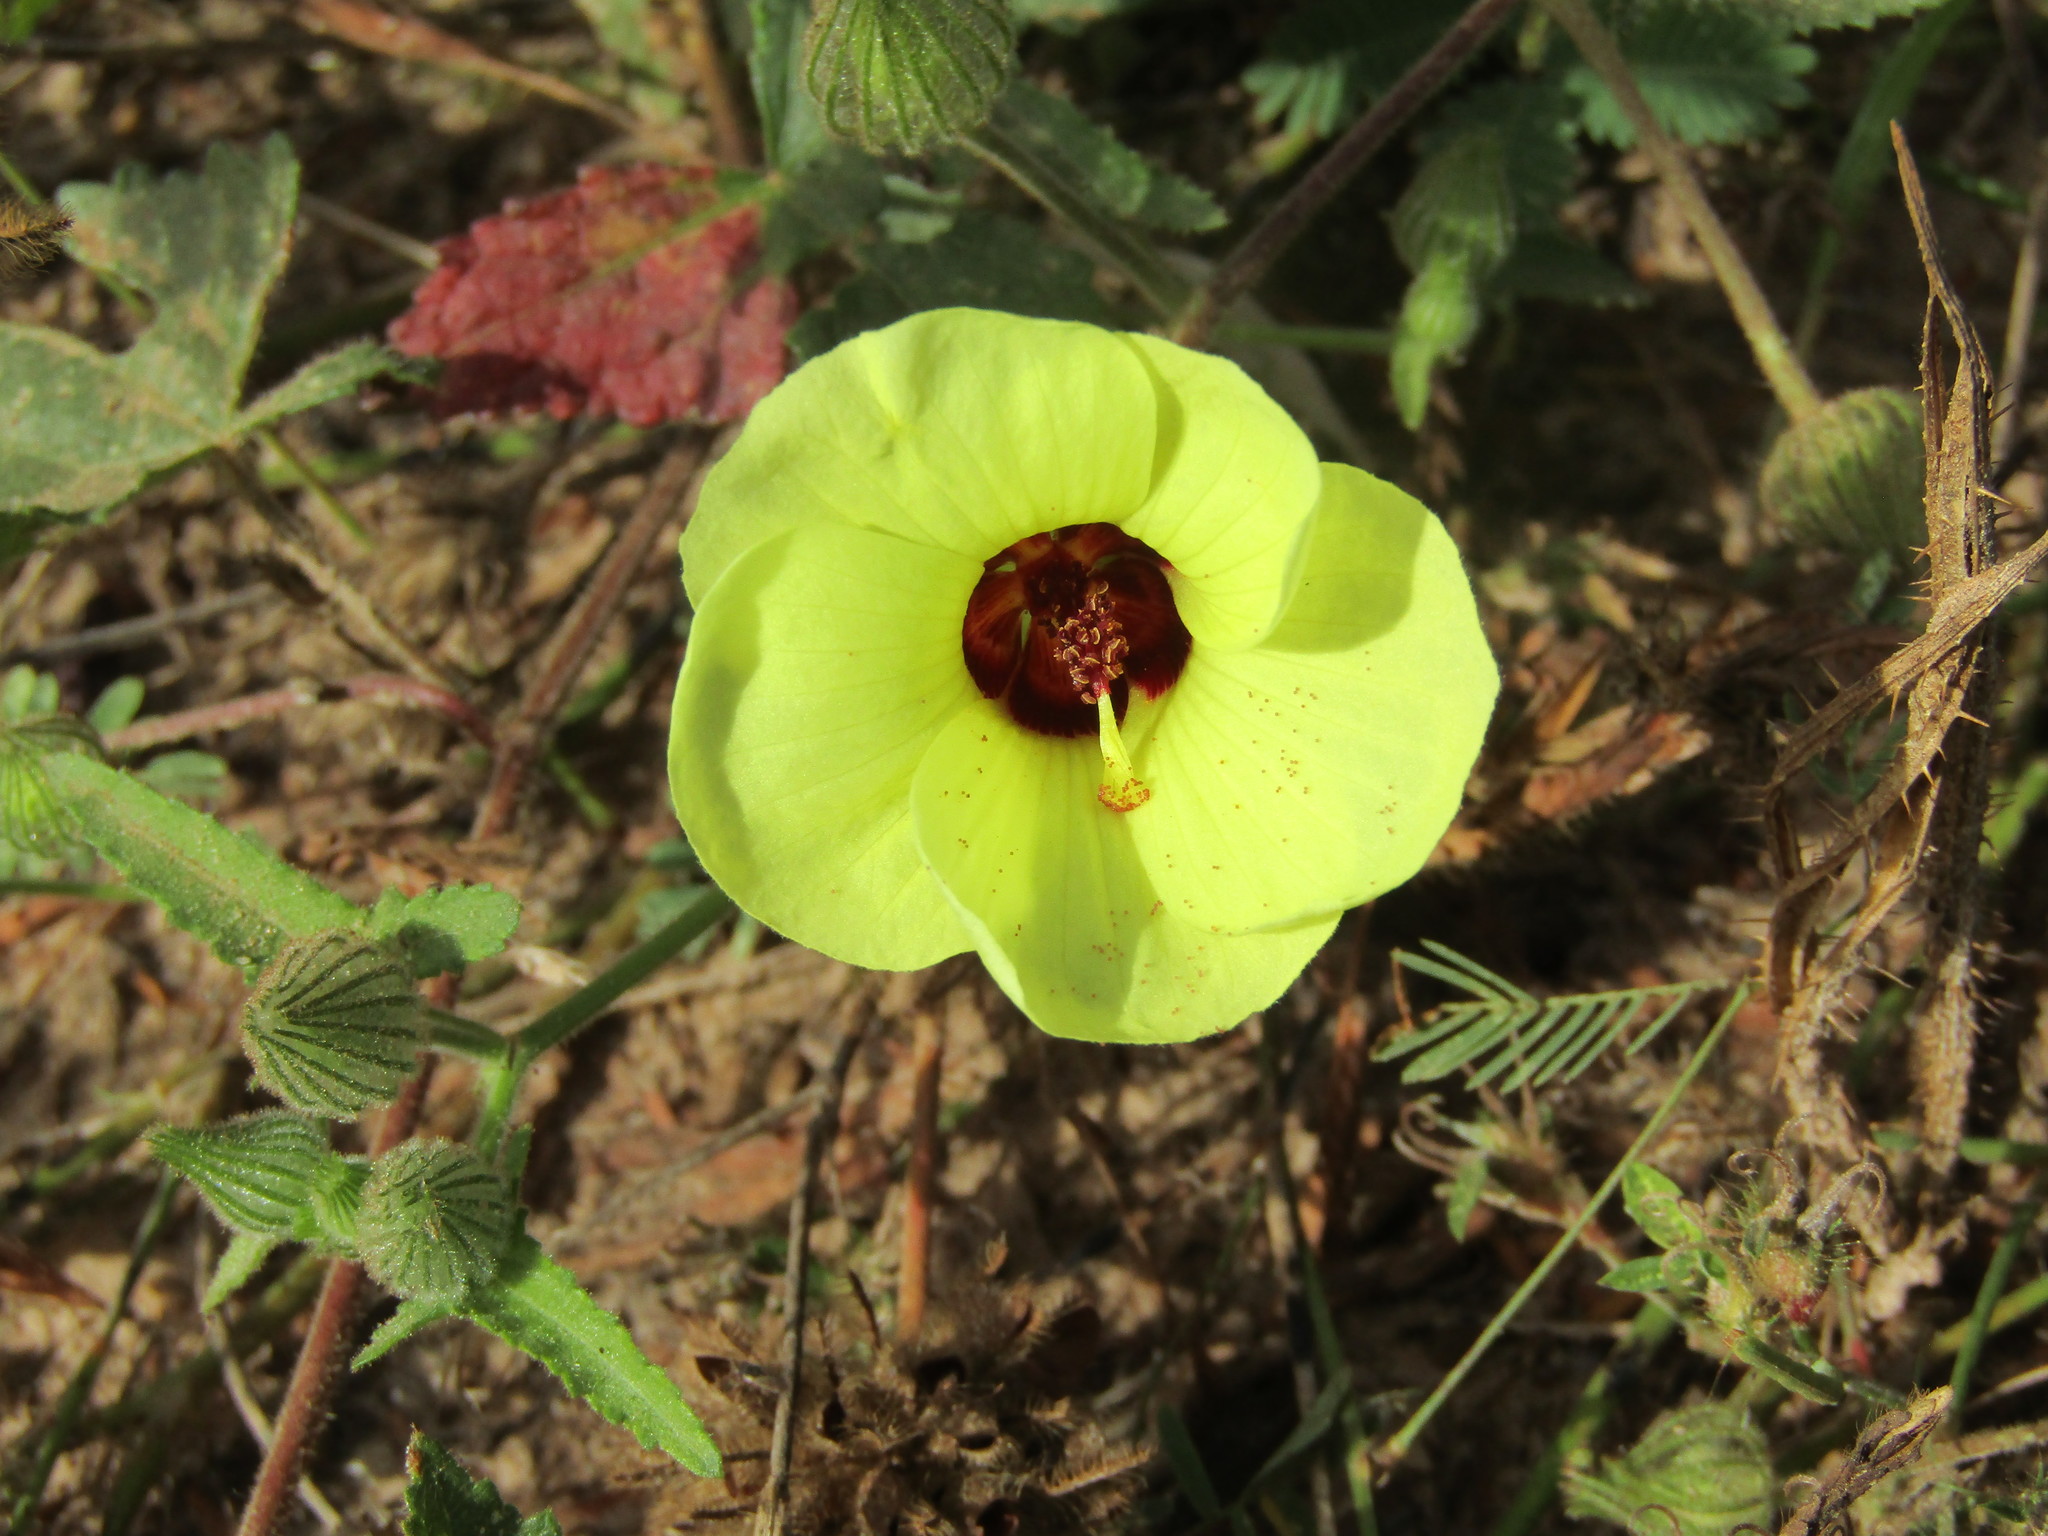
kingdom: Plantae
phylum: Tracheophyta
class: Magnoliopsida
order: Malvales
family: Malvaceae
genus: Pavonia
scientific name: Pavonia cancellata
